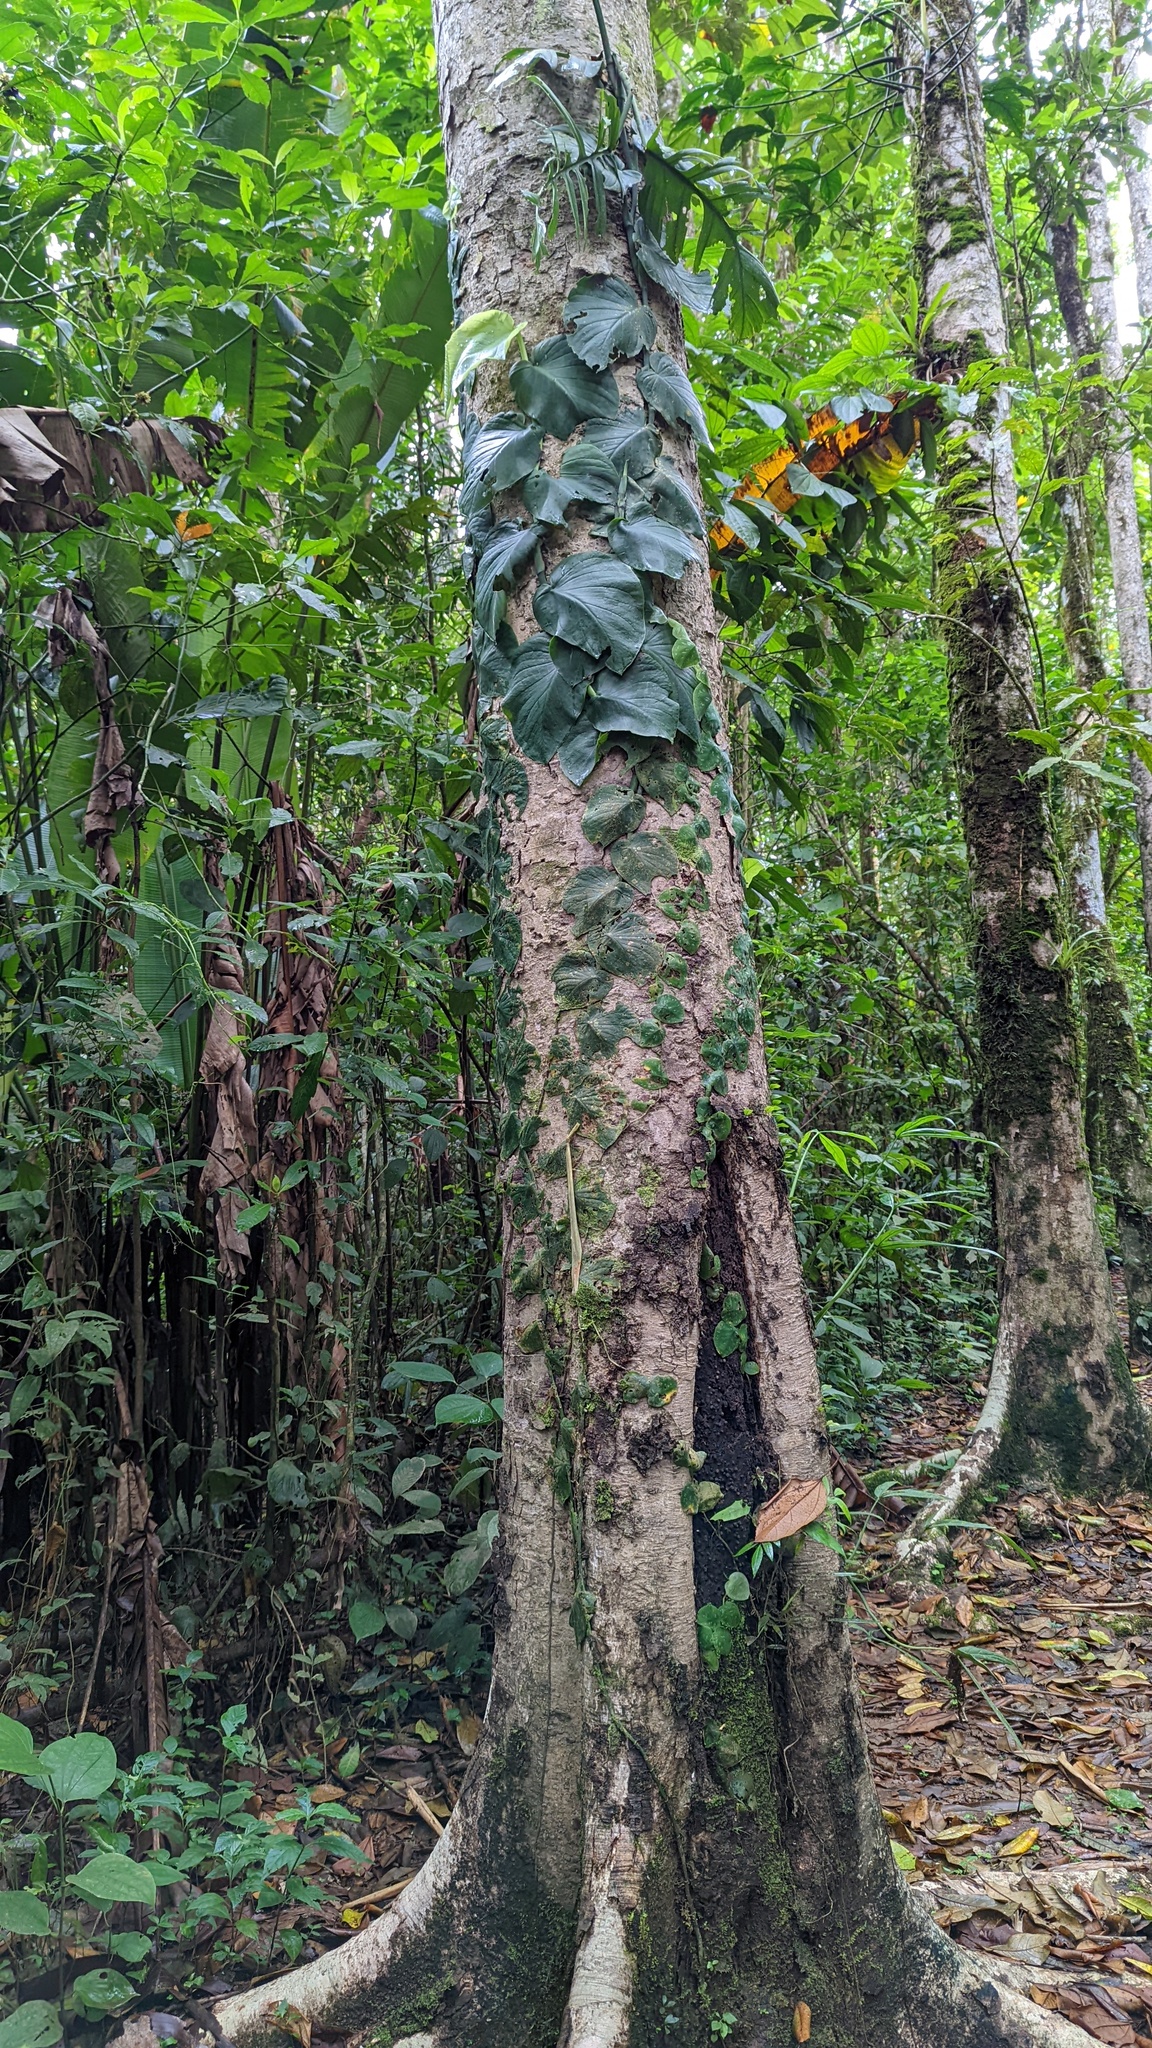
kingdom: Plantae
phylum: Tracheophyta
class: Liliopsida
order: Alismatales
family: Araceae
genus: Monstera
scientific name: Monstera tenuis
